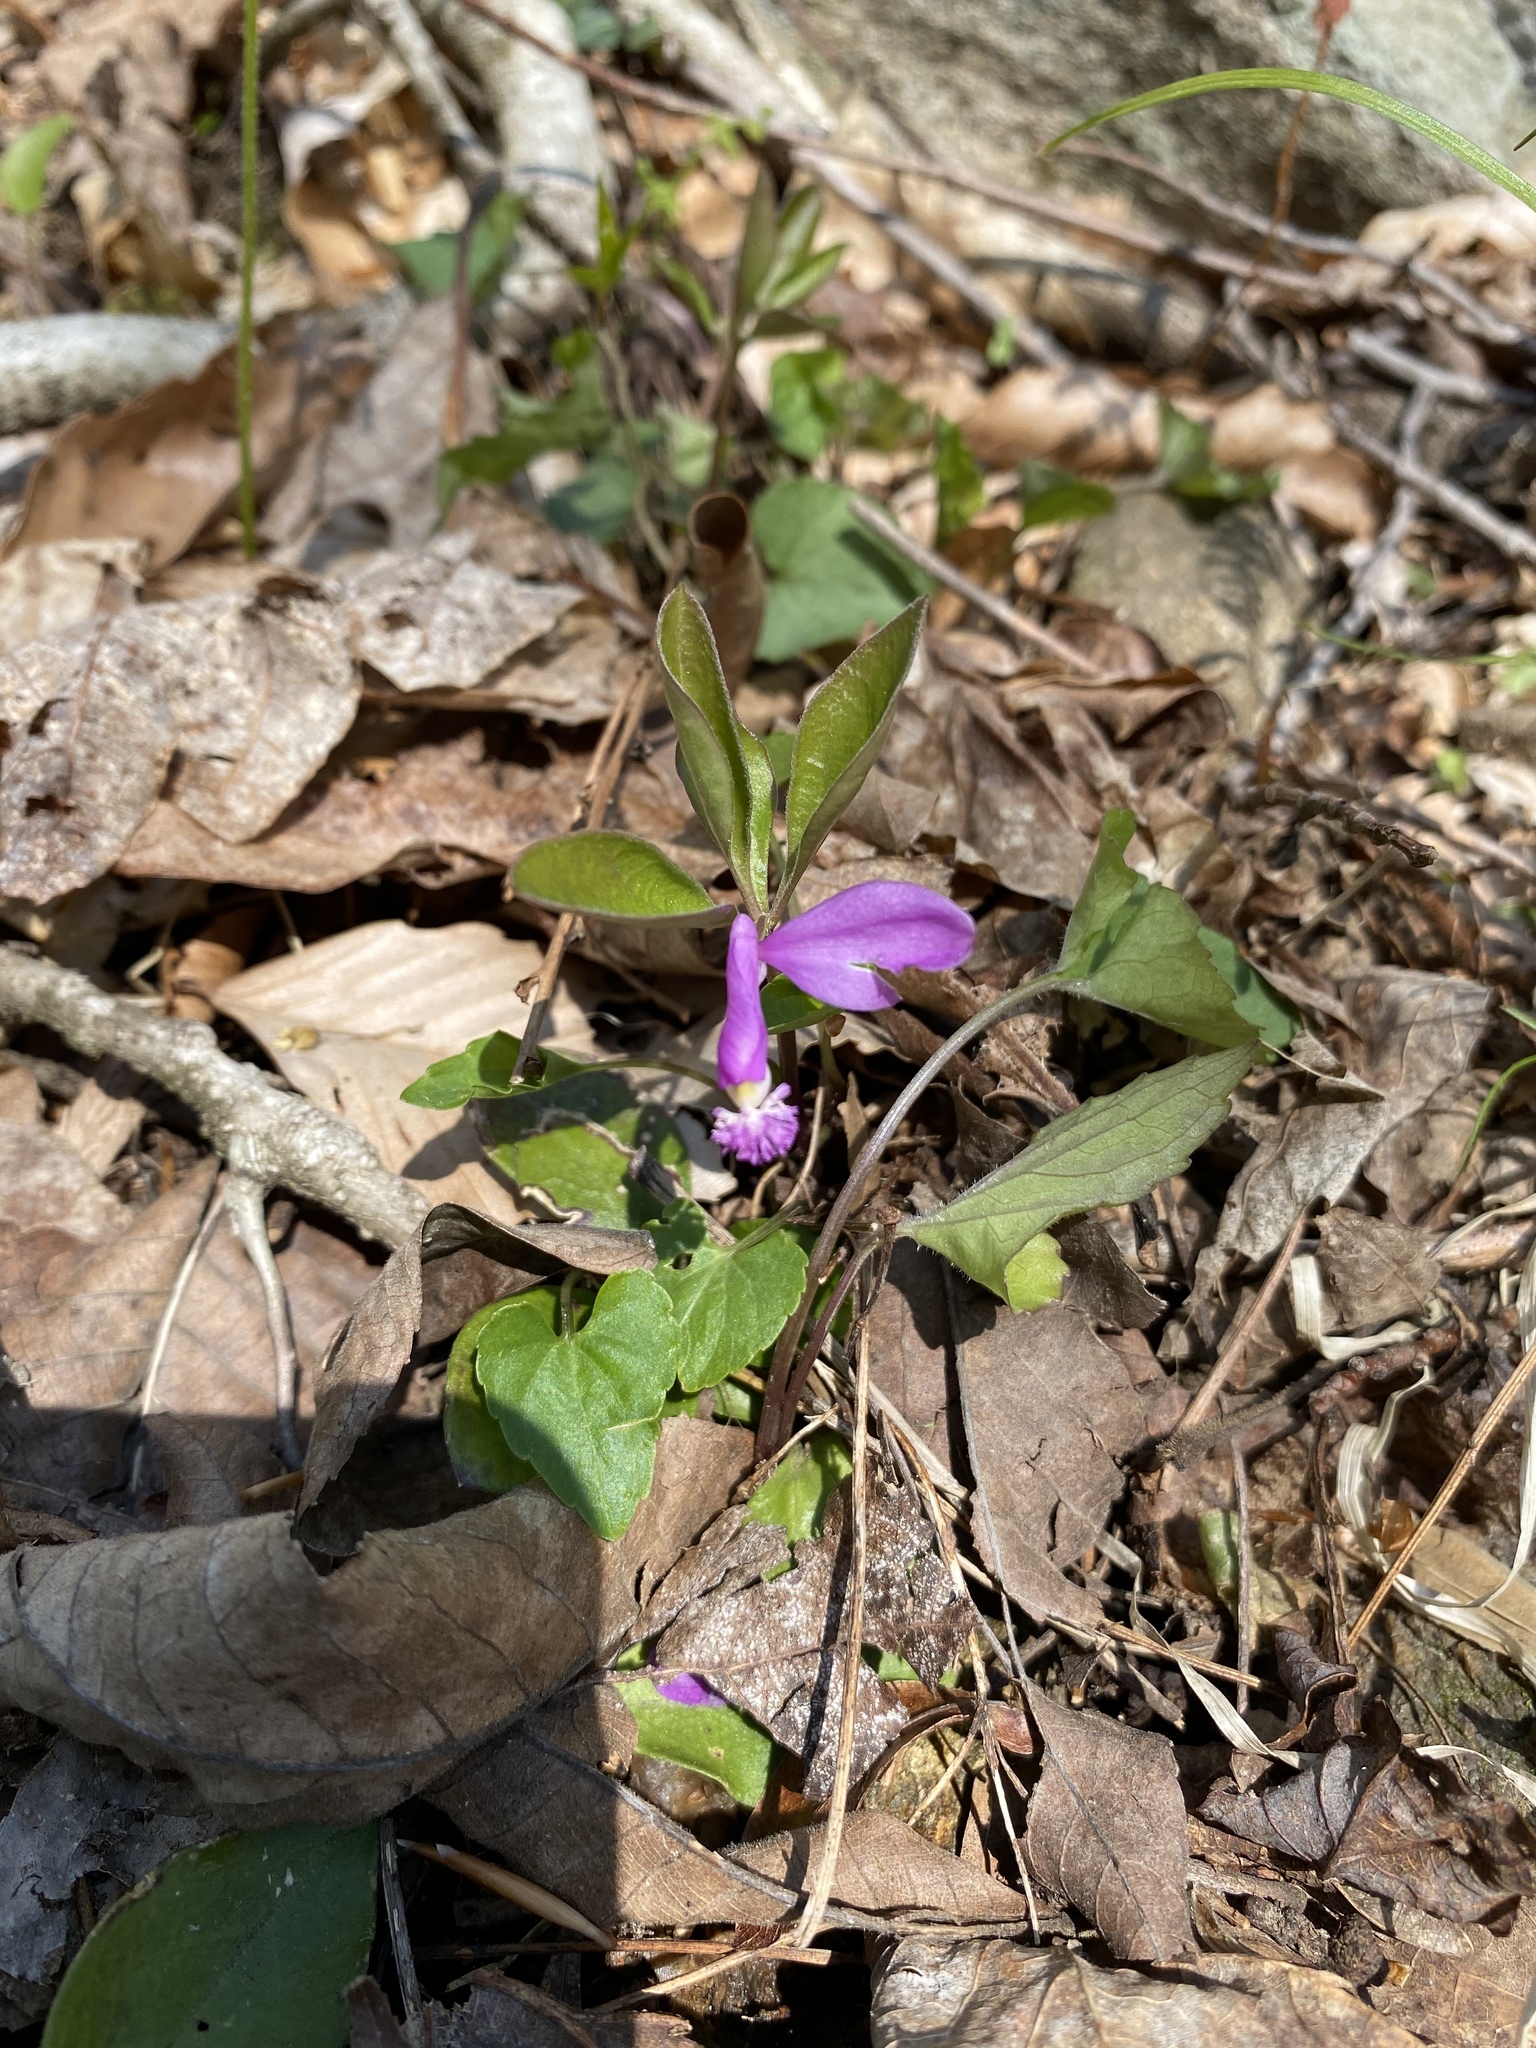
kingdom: Plantae
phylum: Tracheophyta
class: Magnoliopsida
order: Fabales
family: Polygalaceae
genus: Polygaloides
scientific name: Polygaloides paucifolia
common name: Bird-on-the-wing
